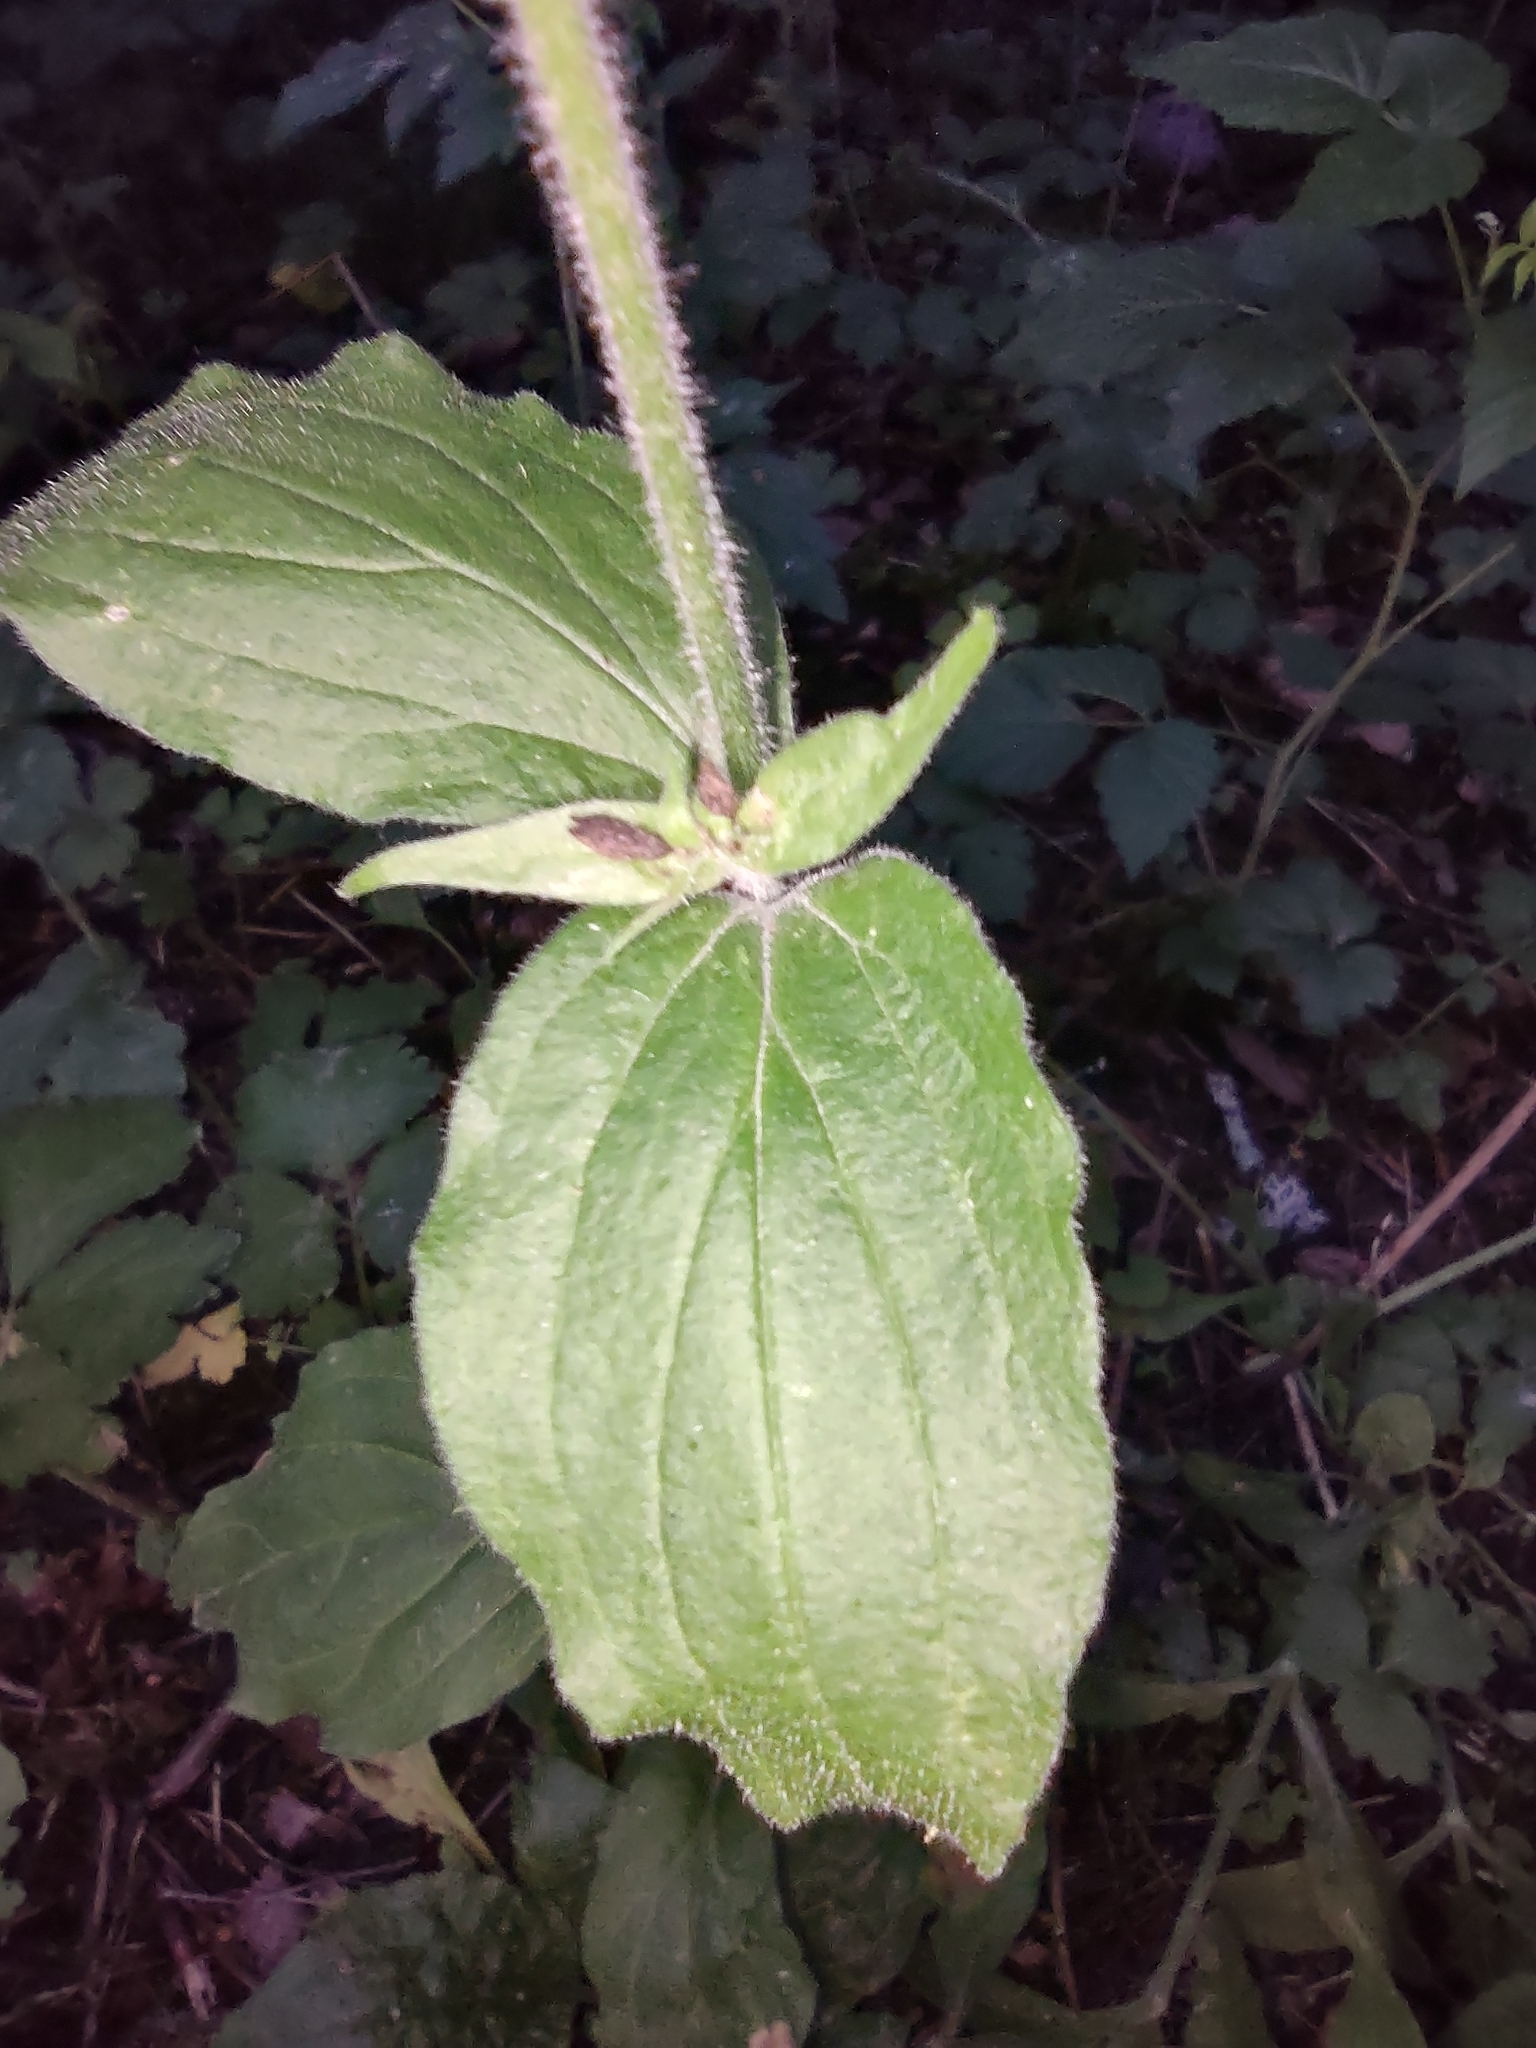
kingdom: Plantae
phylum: Tracheophyta
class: Magnoliopsida
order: Caryophyllales
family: Caryophyllaceae
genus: Silene
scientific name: Silene dioica
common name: Red campion
